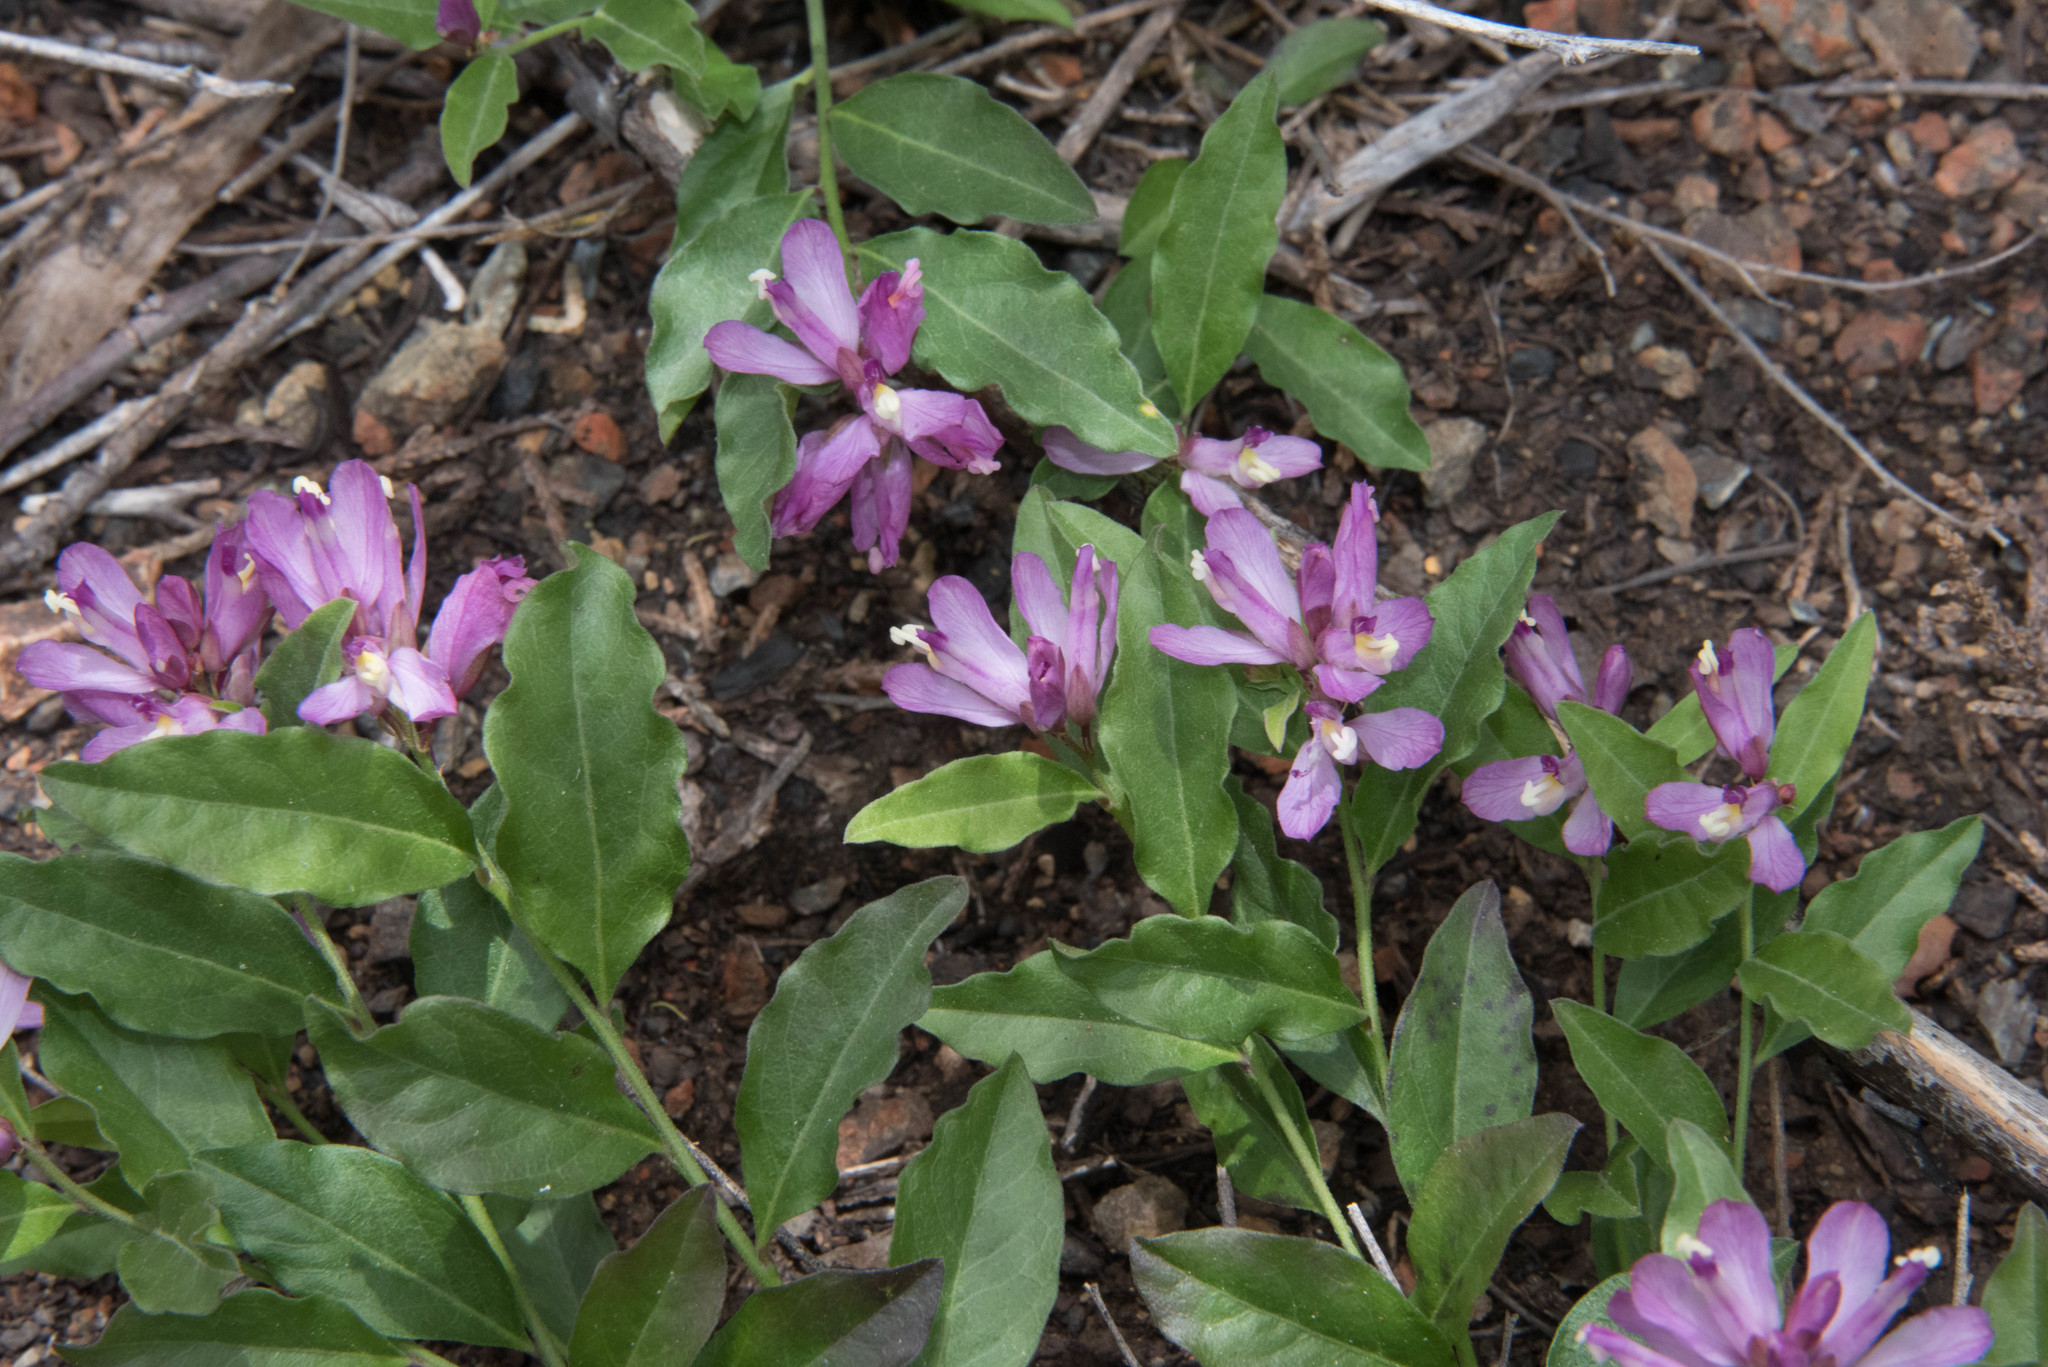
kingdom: Plantae
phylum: Tracheophyta
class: Magnoliopsida
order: Fabales
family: Polygalaceae
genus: Rhinotropis
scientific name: Rhinotropis californica
